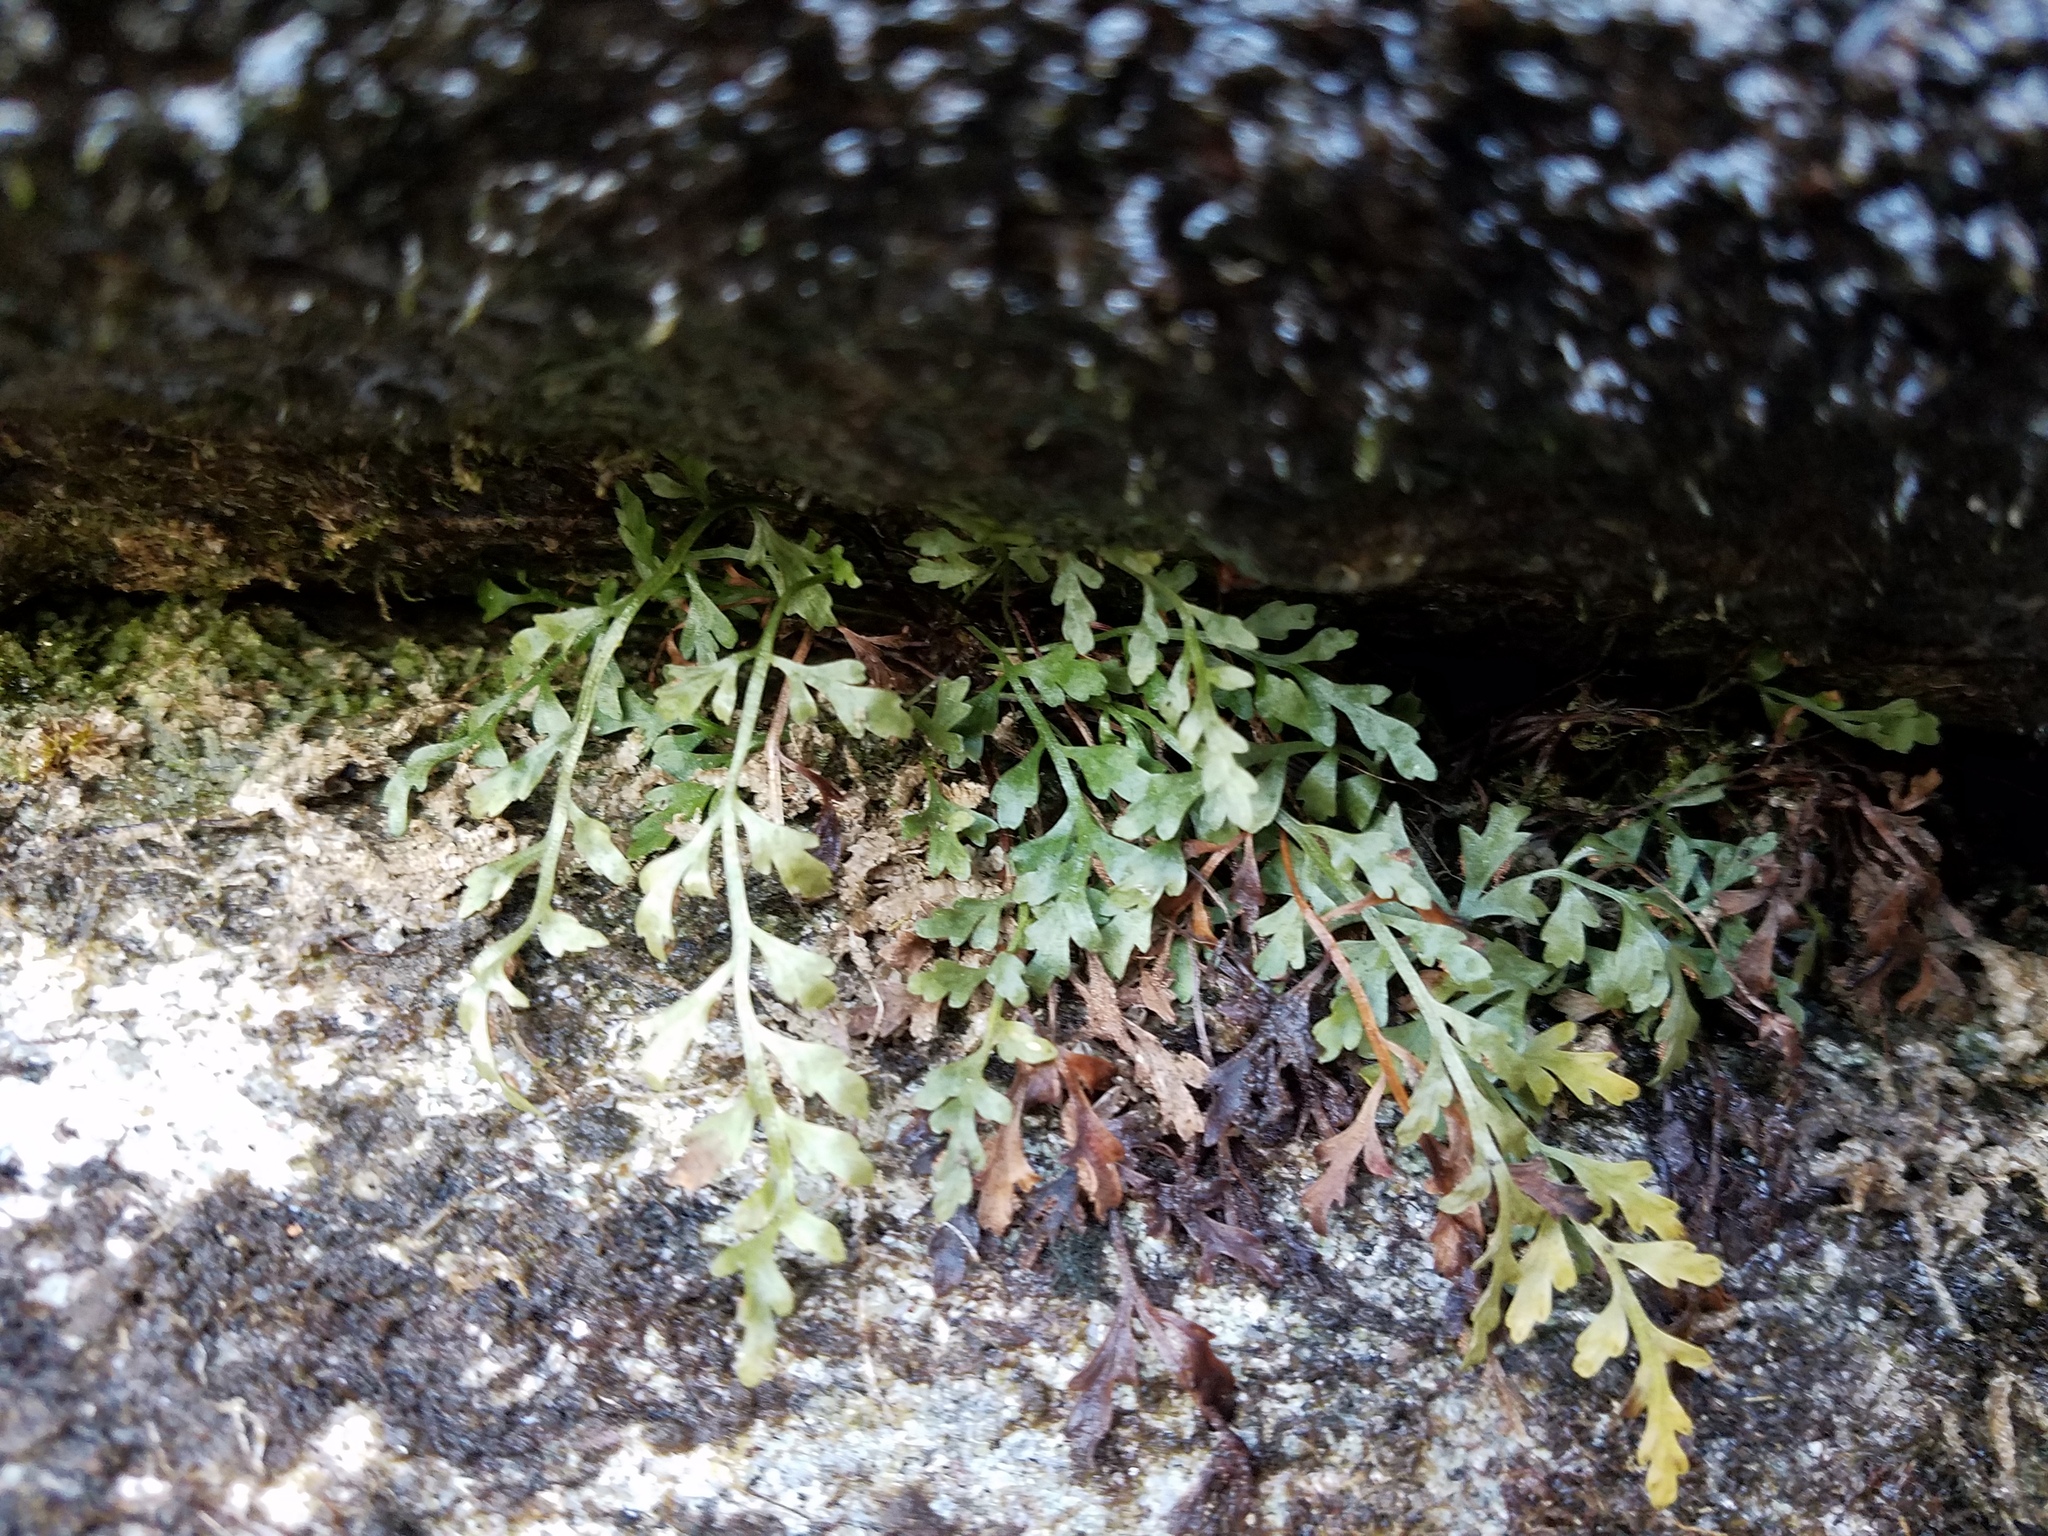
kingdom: Plantae
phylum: Tracheophyta
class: Polypodiopsida
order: Polypodiales
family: Aspleniaceae
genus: Asplenium
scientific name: Asplenium montanum
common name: Mountain spleenwort
